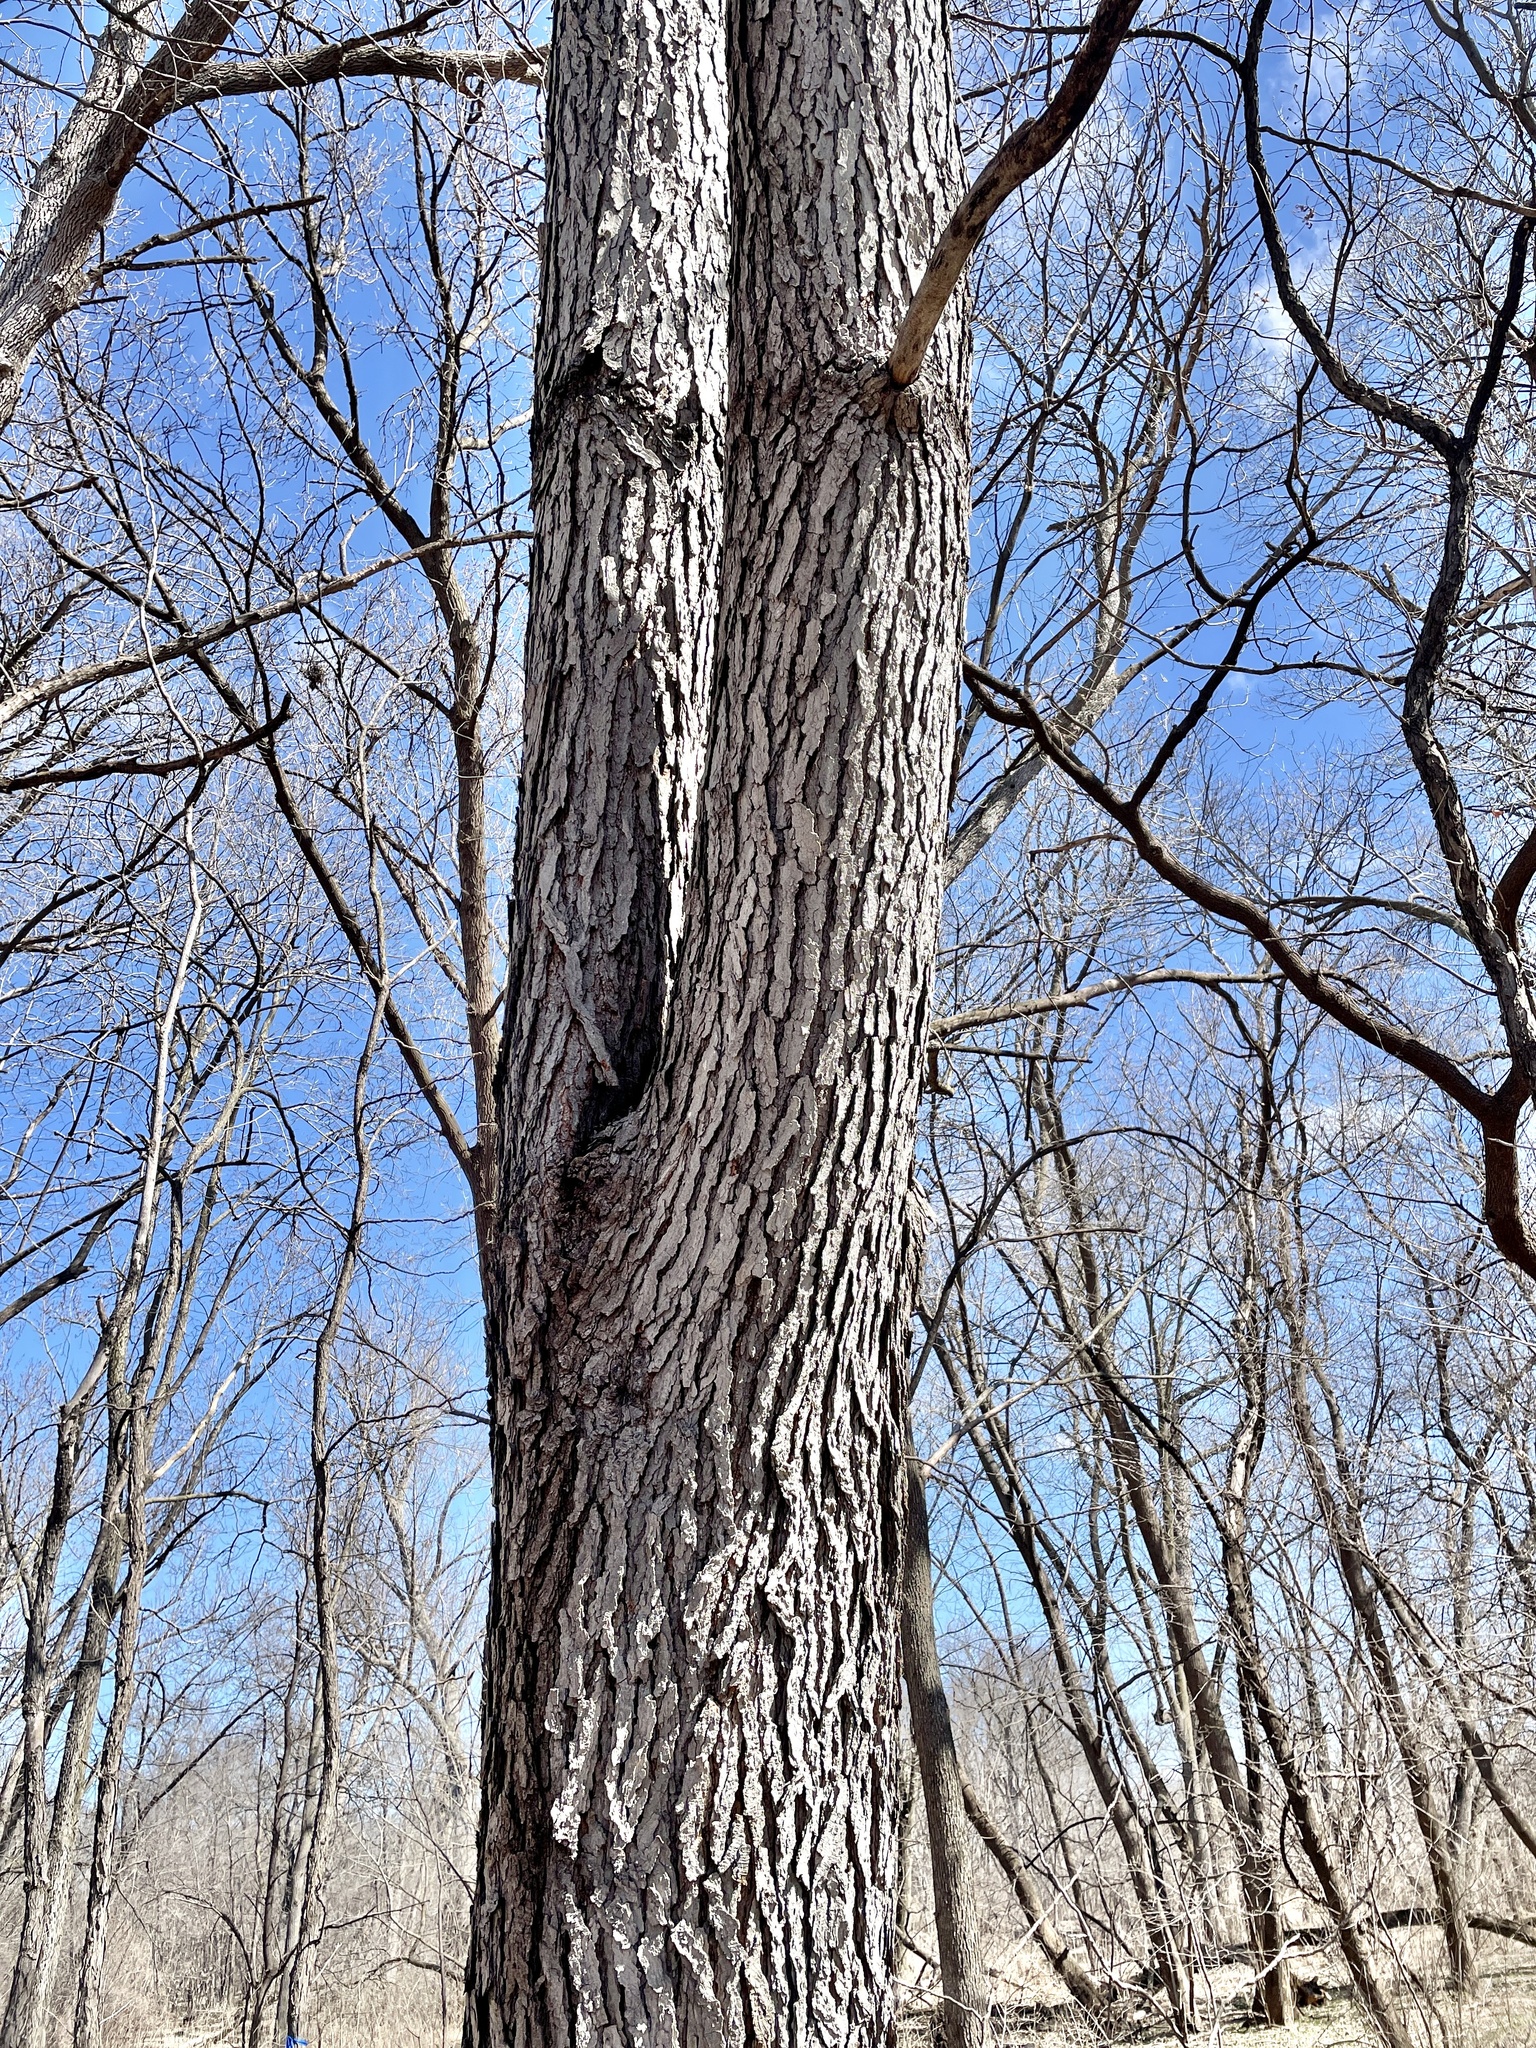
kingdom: Plantae
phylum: Tracheophyta
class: Magnoliopsida
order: Fabales
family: Fabaceae
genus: Gymnocladus
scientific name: Gymnocladus dioicus
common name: Kentucky coffee-tree
